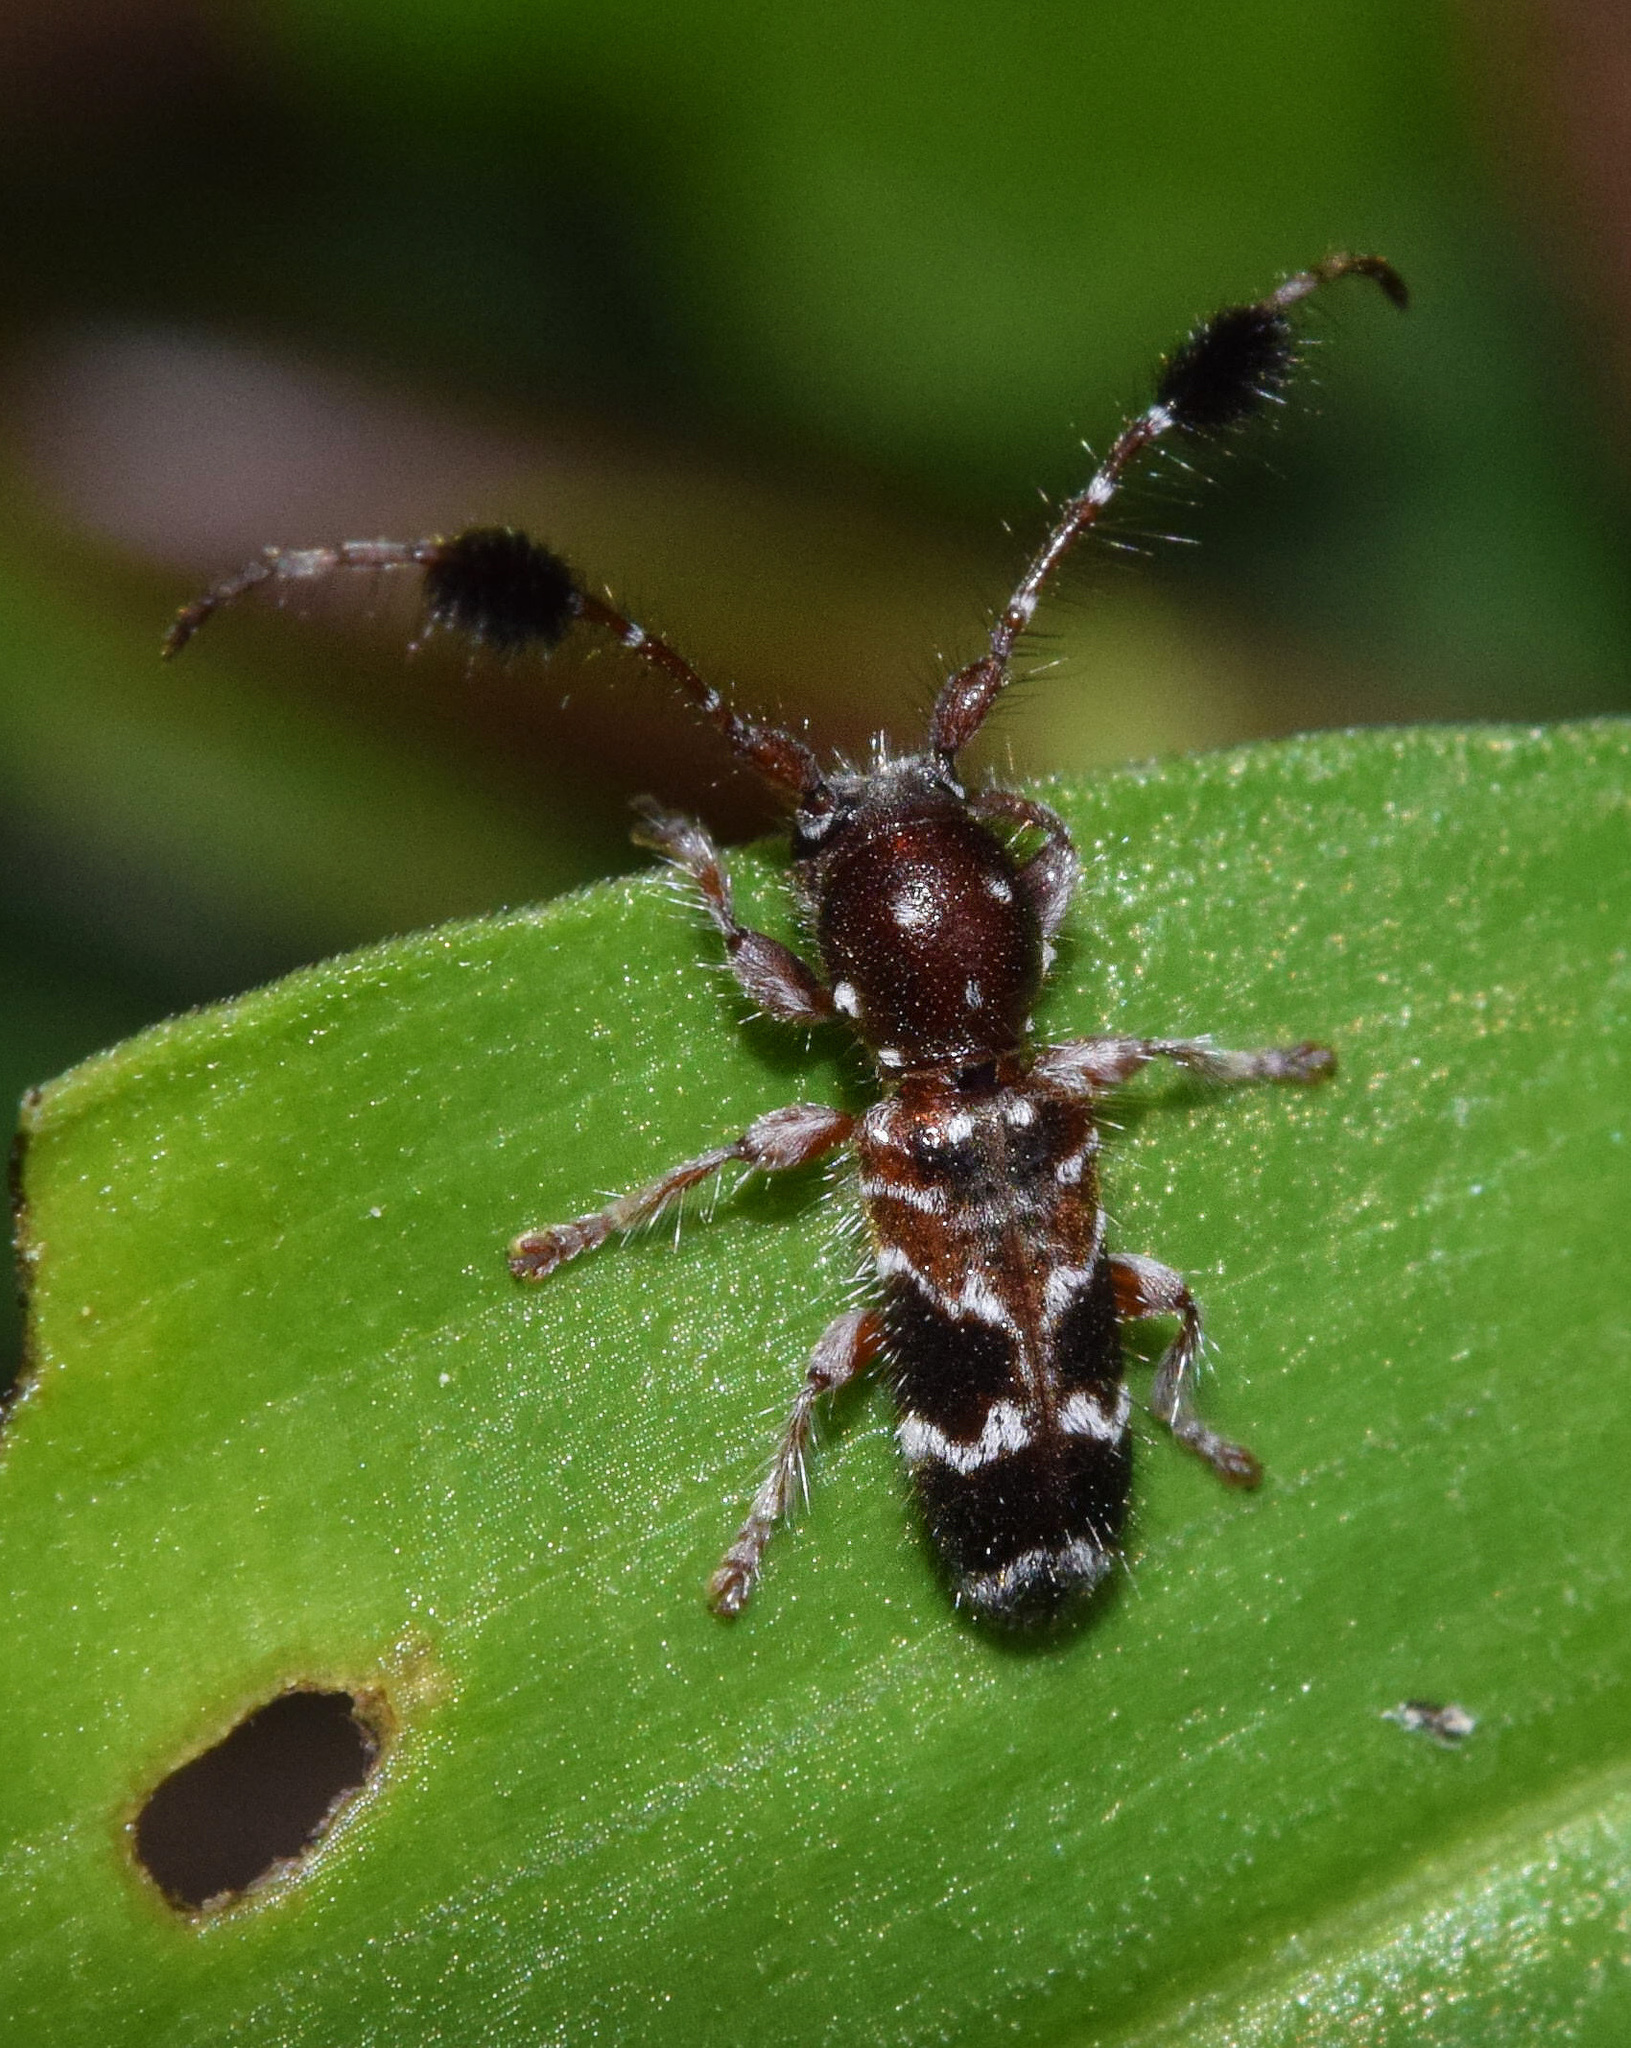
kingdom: Animalia
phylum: Arthropoda
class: Insecta
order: Coleoptera
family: Cerambycidae
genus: Biasmia
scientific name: Biasmia guttata
